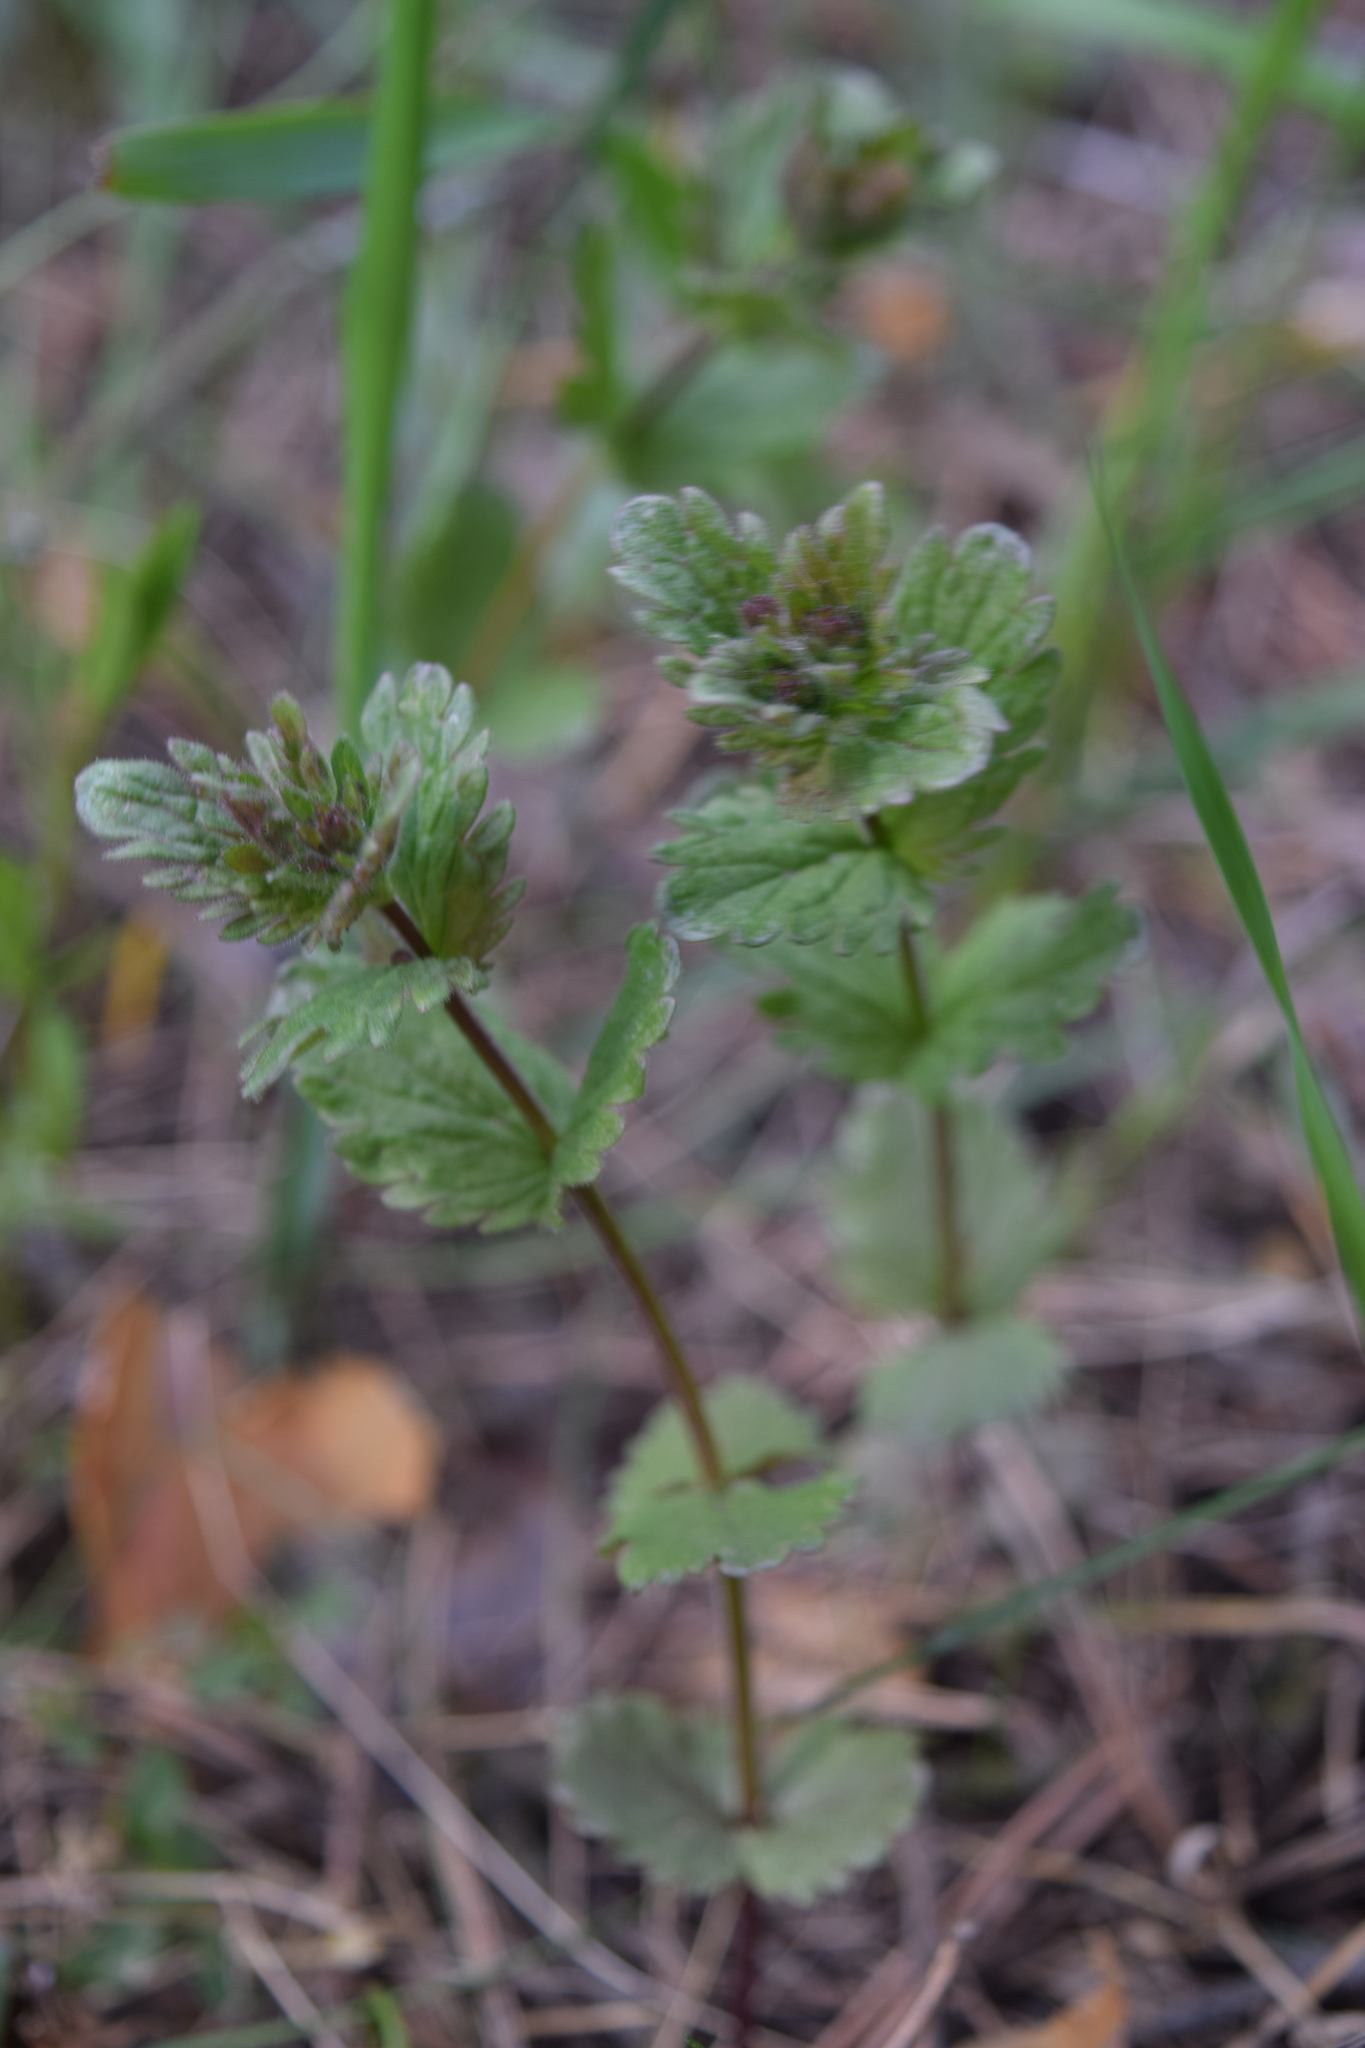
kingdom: Plantae
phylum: Tracheophyta
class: Magnoliopsida
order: Lamiales
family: Plantaginaceae
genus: Veronica
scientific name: Veronica chamaedrys
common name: Germander speedwell
